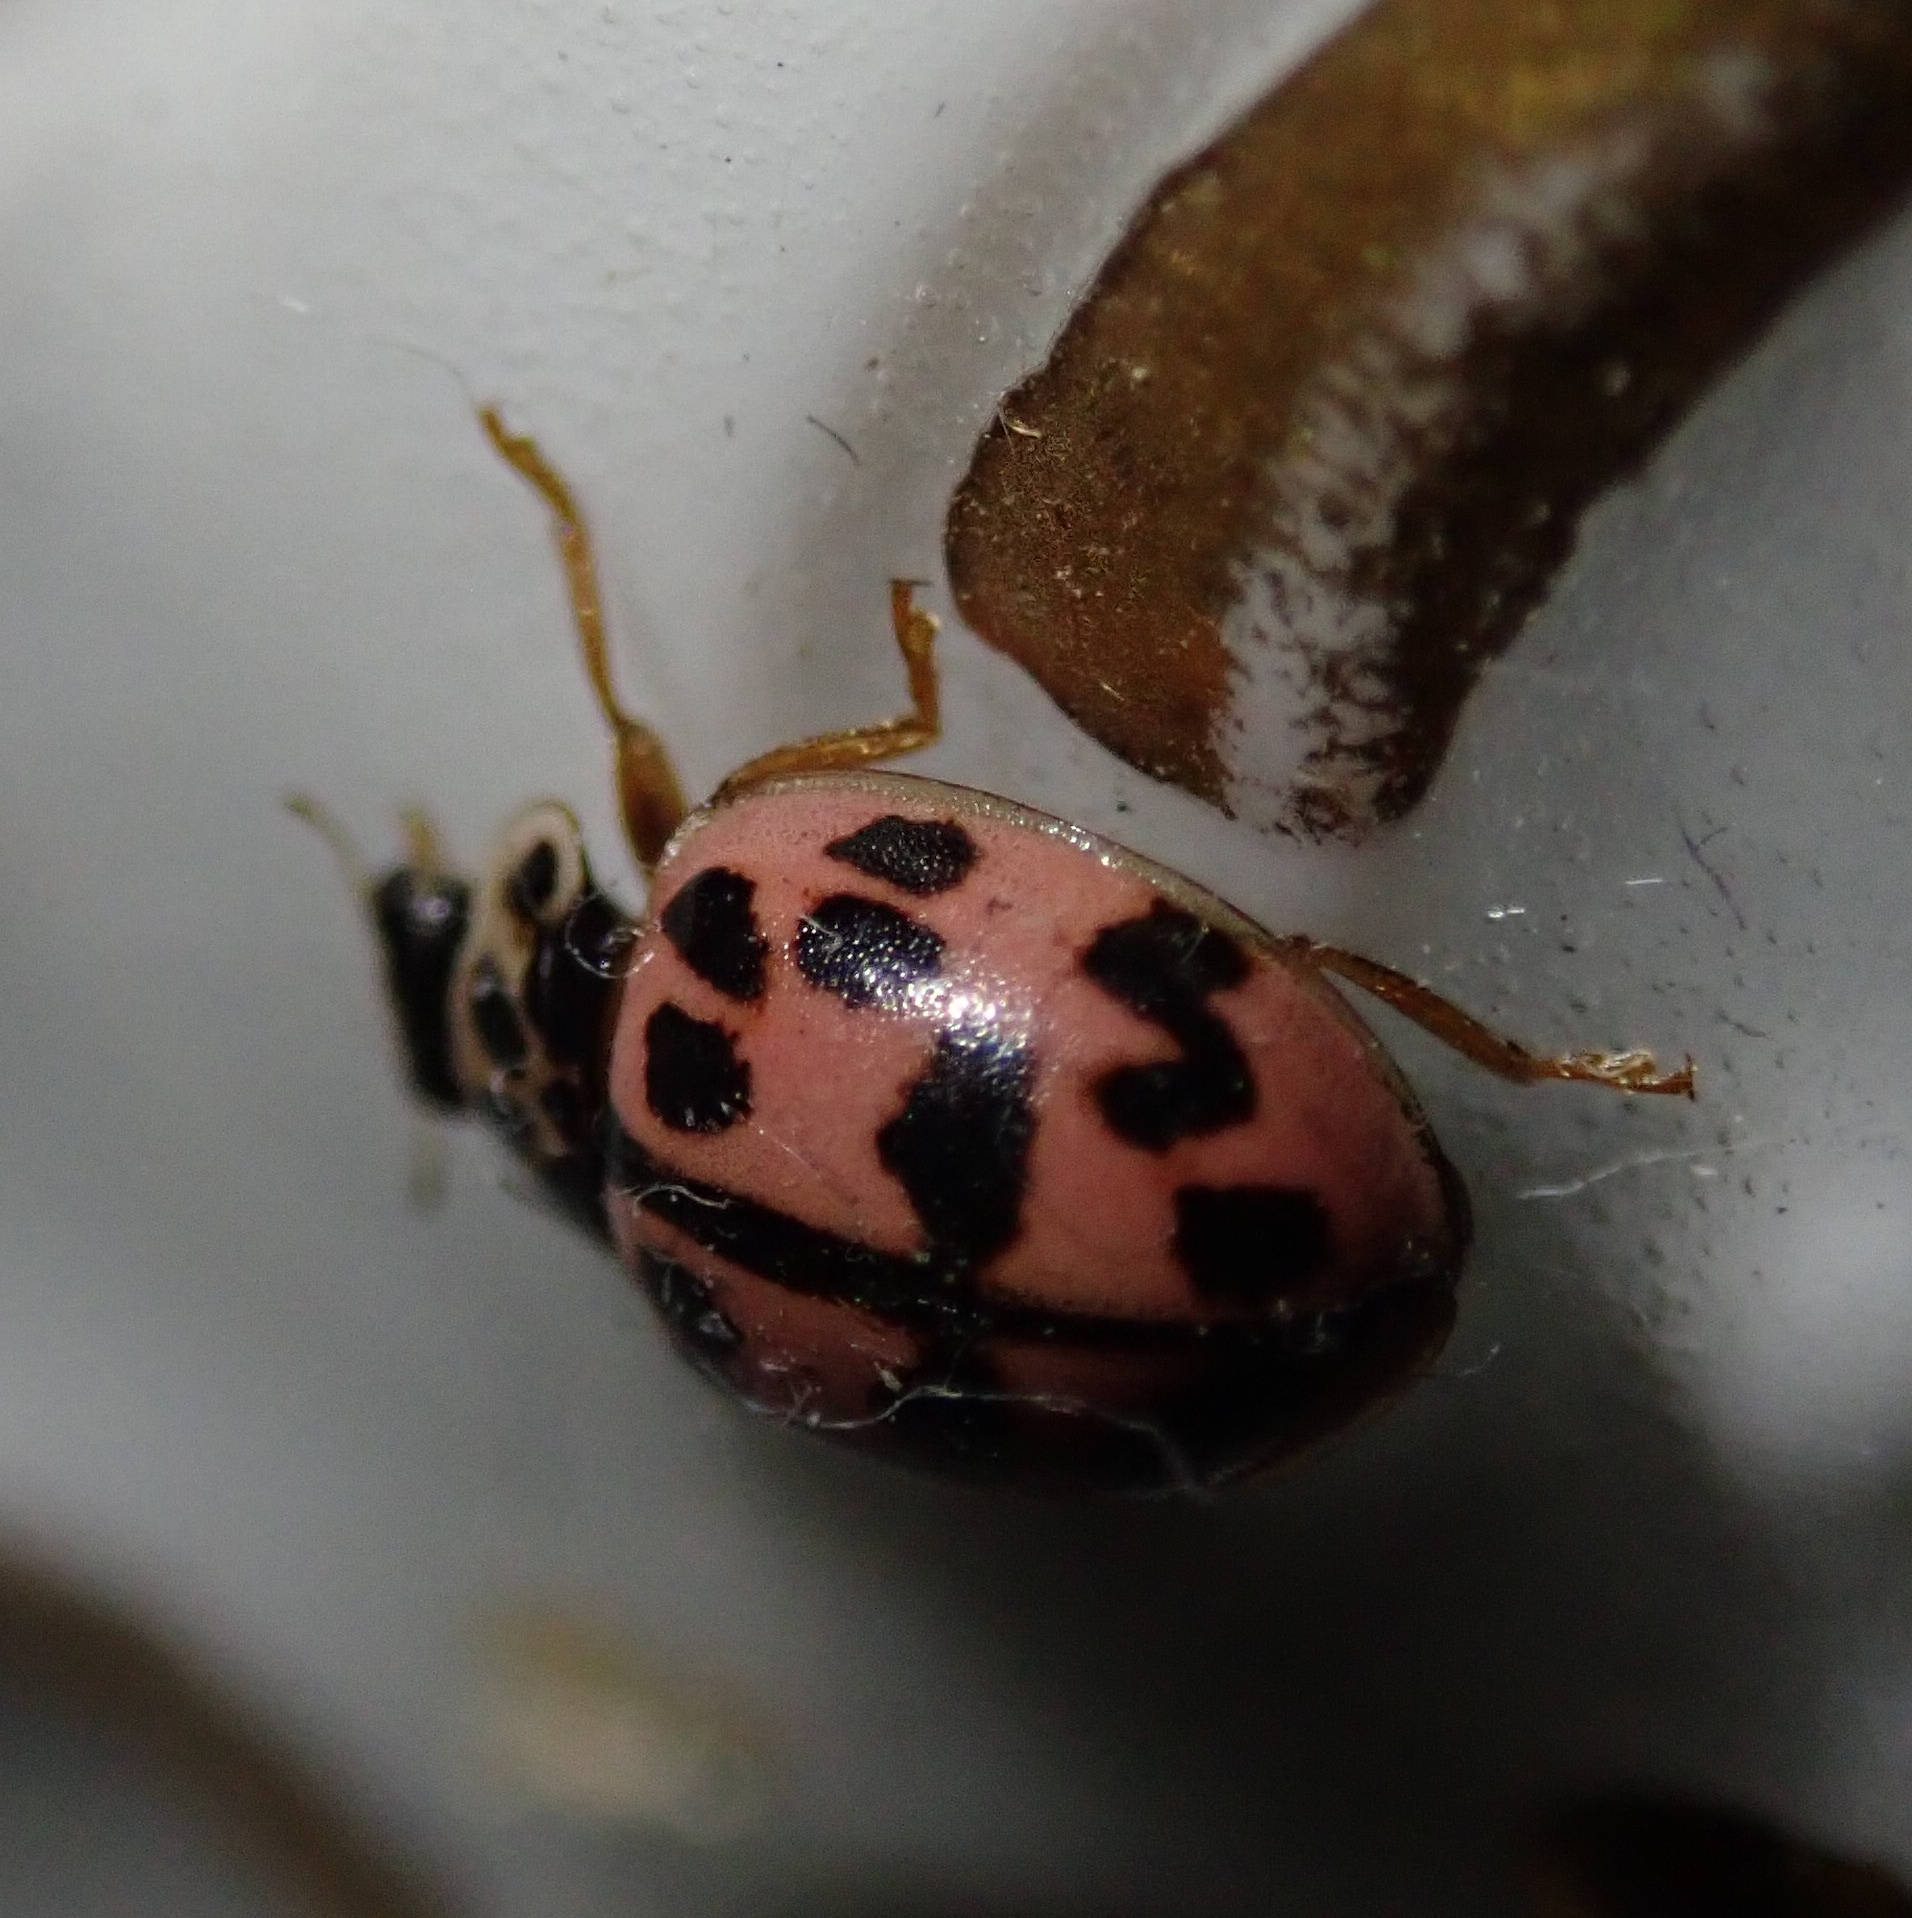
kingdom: Animalia
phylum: Arthropoda
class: Insecta
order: Coleoptera
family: Coccinellidae
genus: Oenopia
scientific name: Oenopia conglobata
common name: Ladybird beetle
